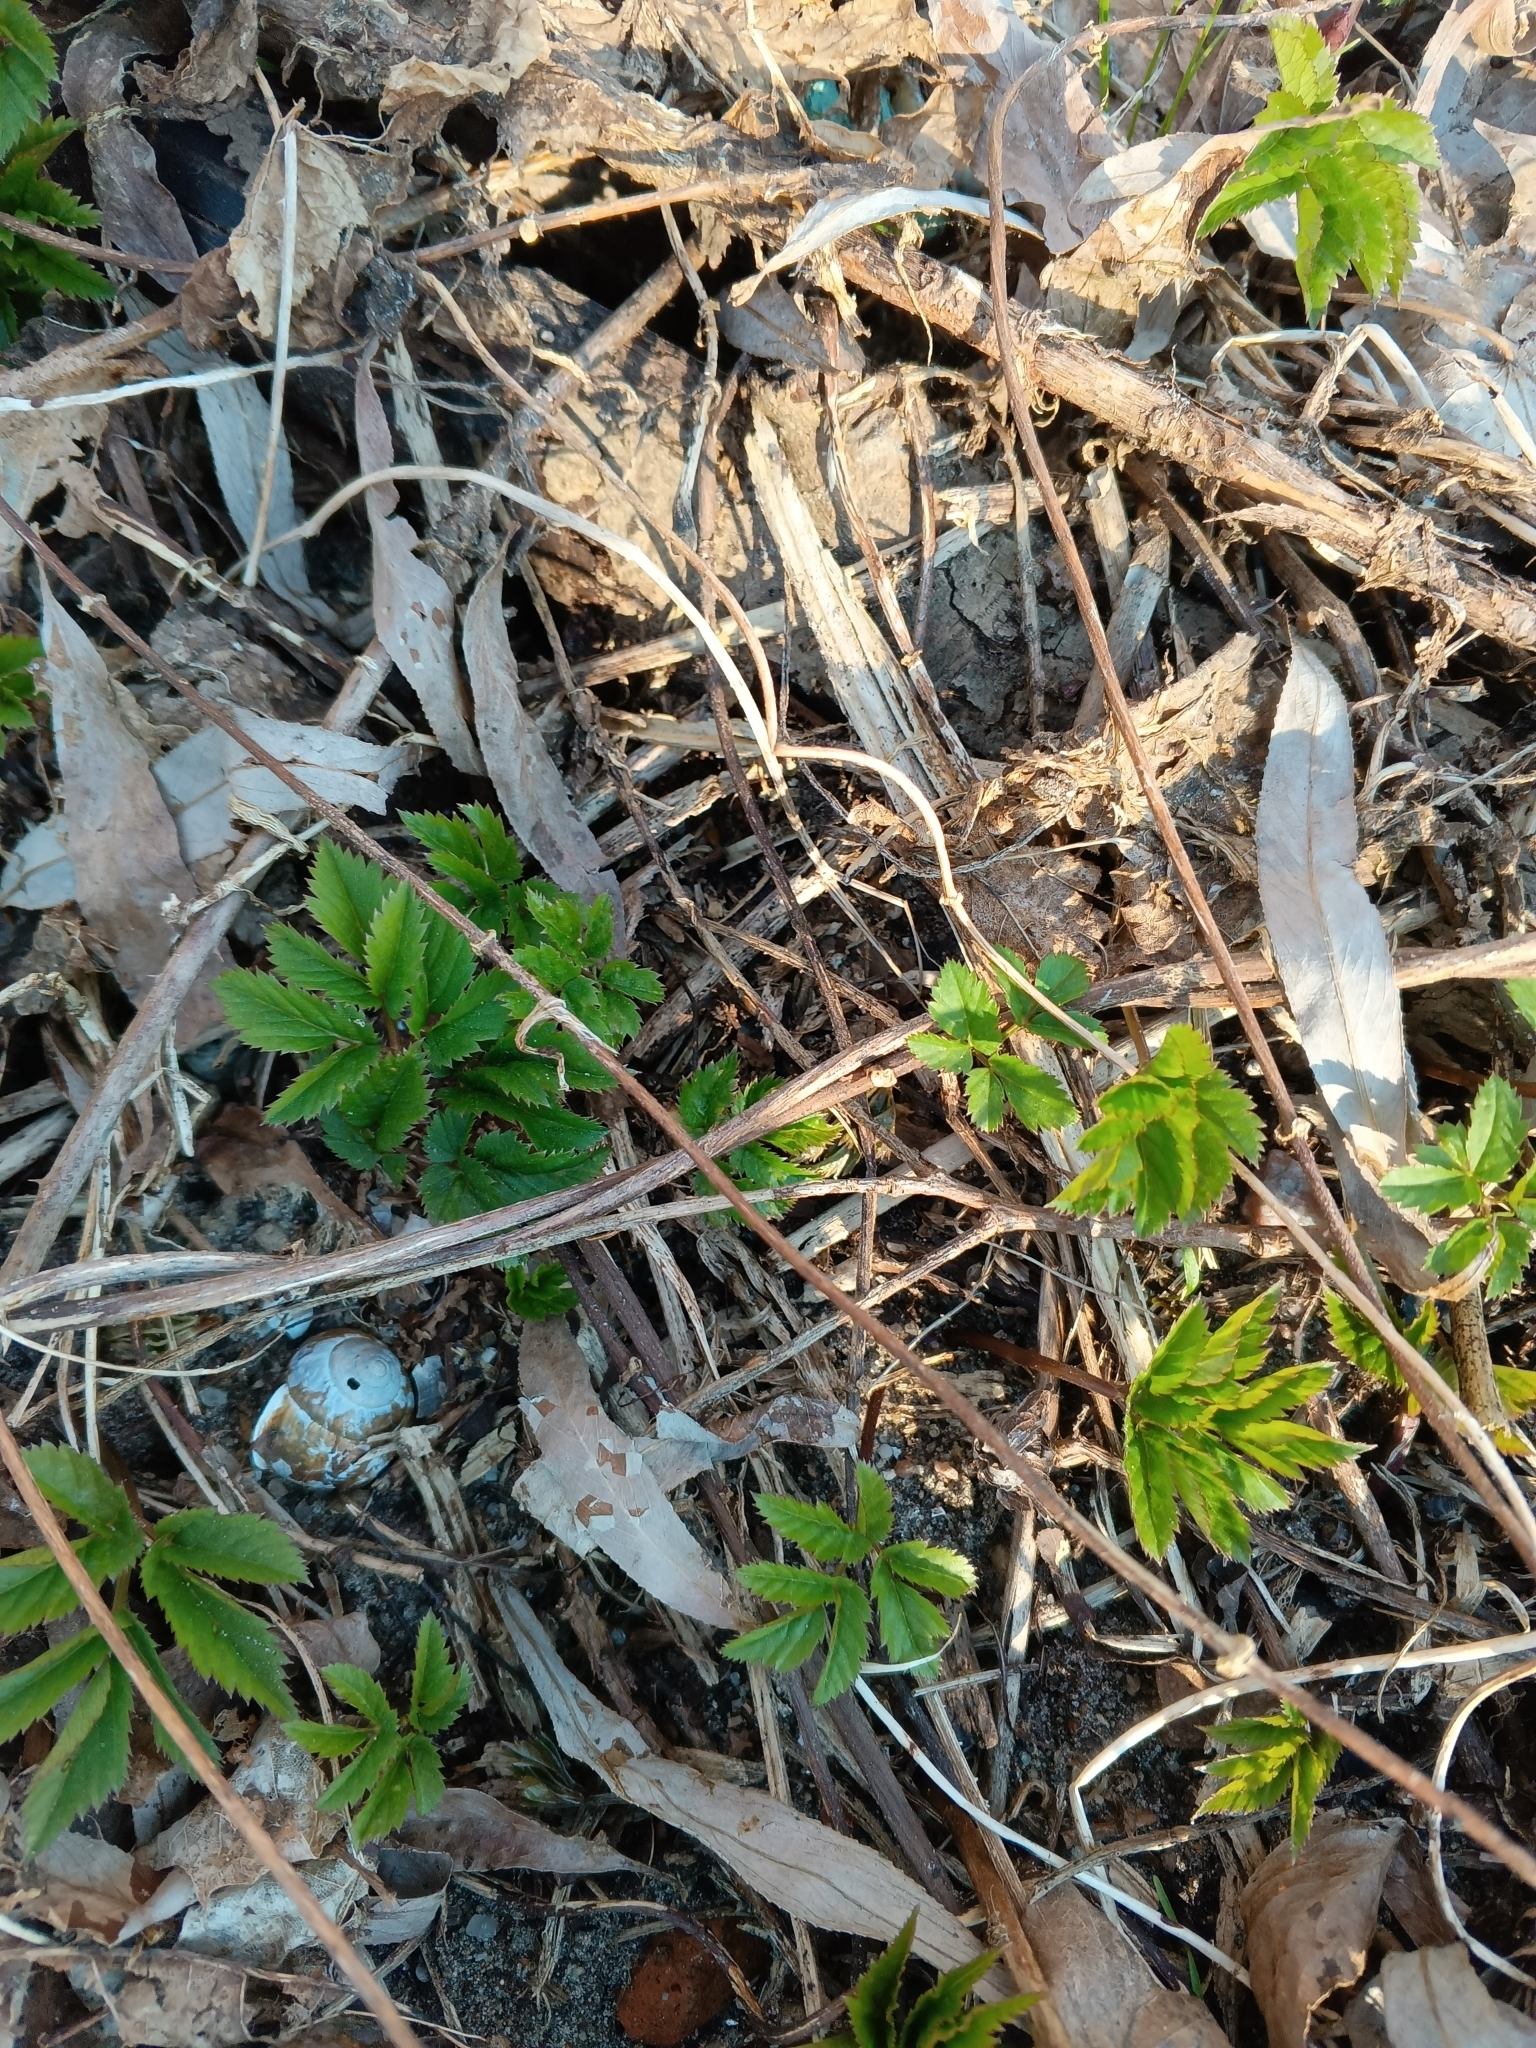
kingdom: Plantae
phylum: Tracheophyta
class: Magnoliopsida
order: Apiales
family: Apiaceae
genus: Aegopodium
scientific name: Aegopodium podagraria
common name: Ground-elder
